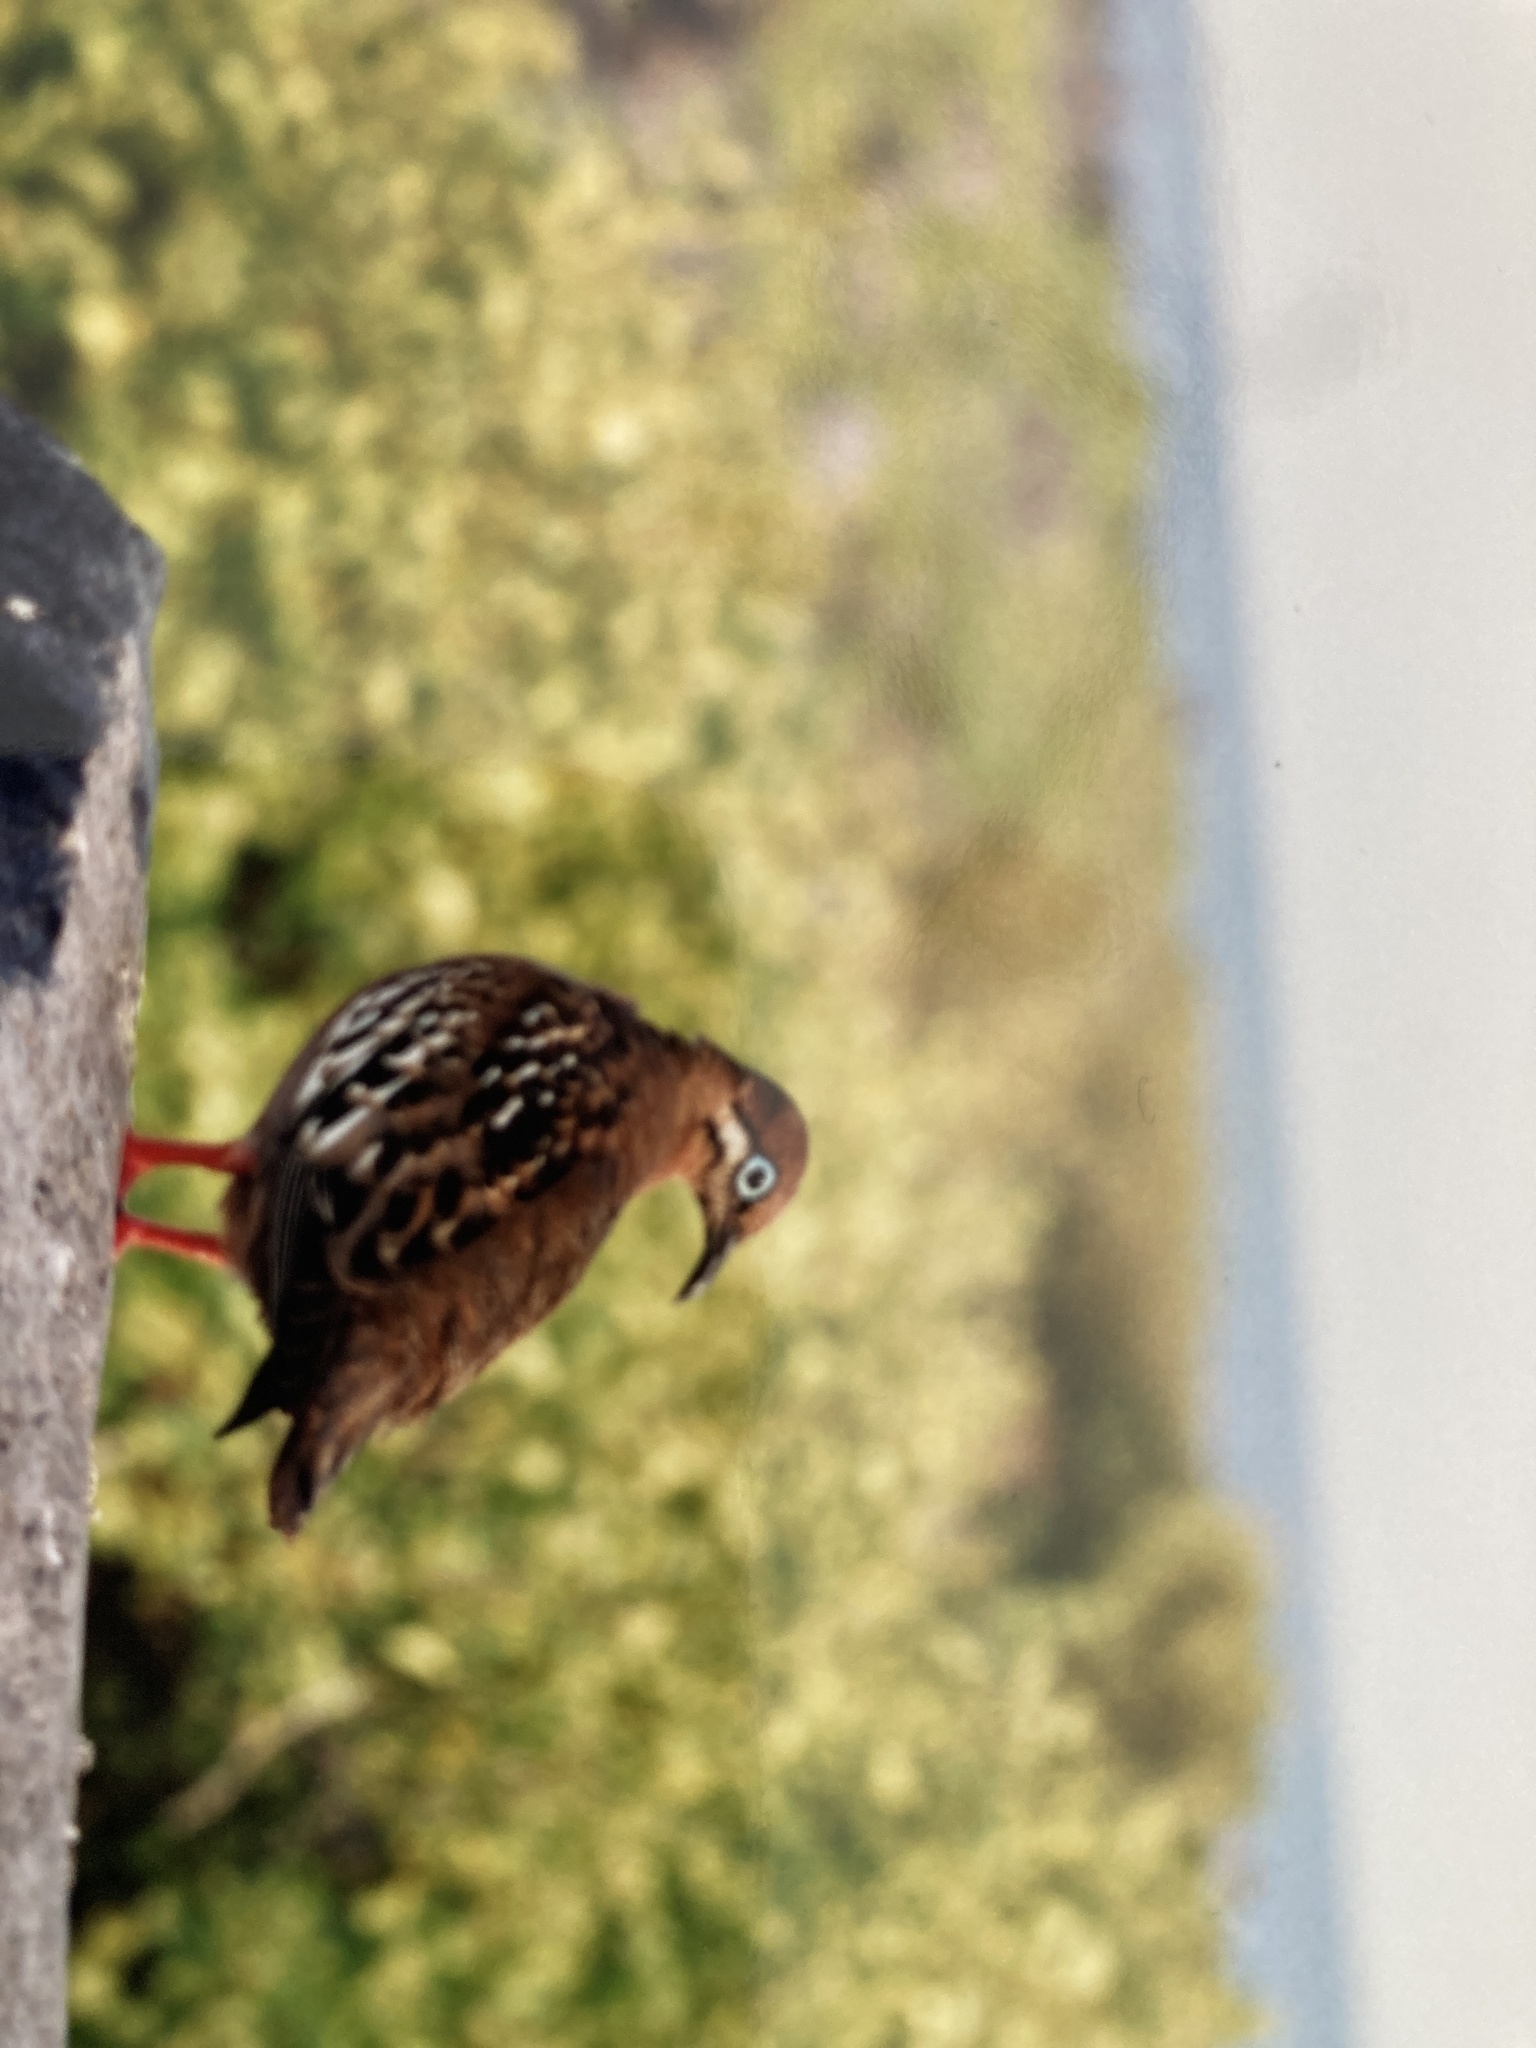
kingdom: Animalia
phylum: Chordata
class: Aves
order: Columbiformes
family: Columbidae
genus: Zenaida
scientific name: Zenaida galapagoensis
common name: Galapagos dove
